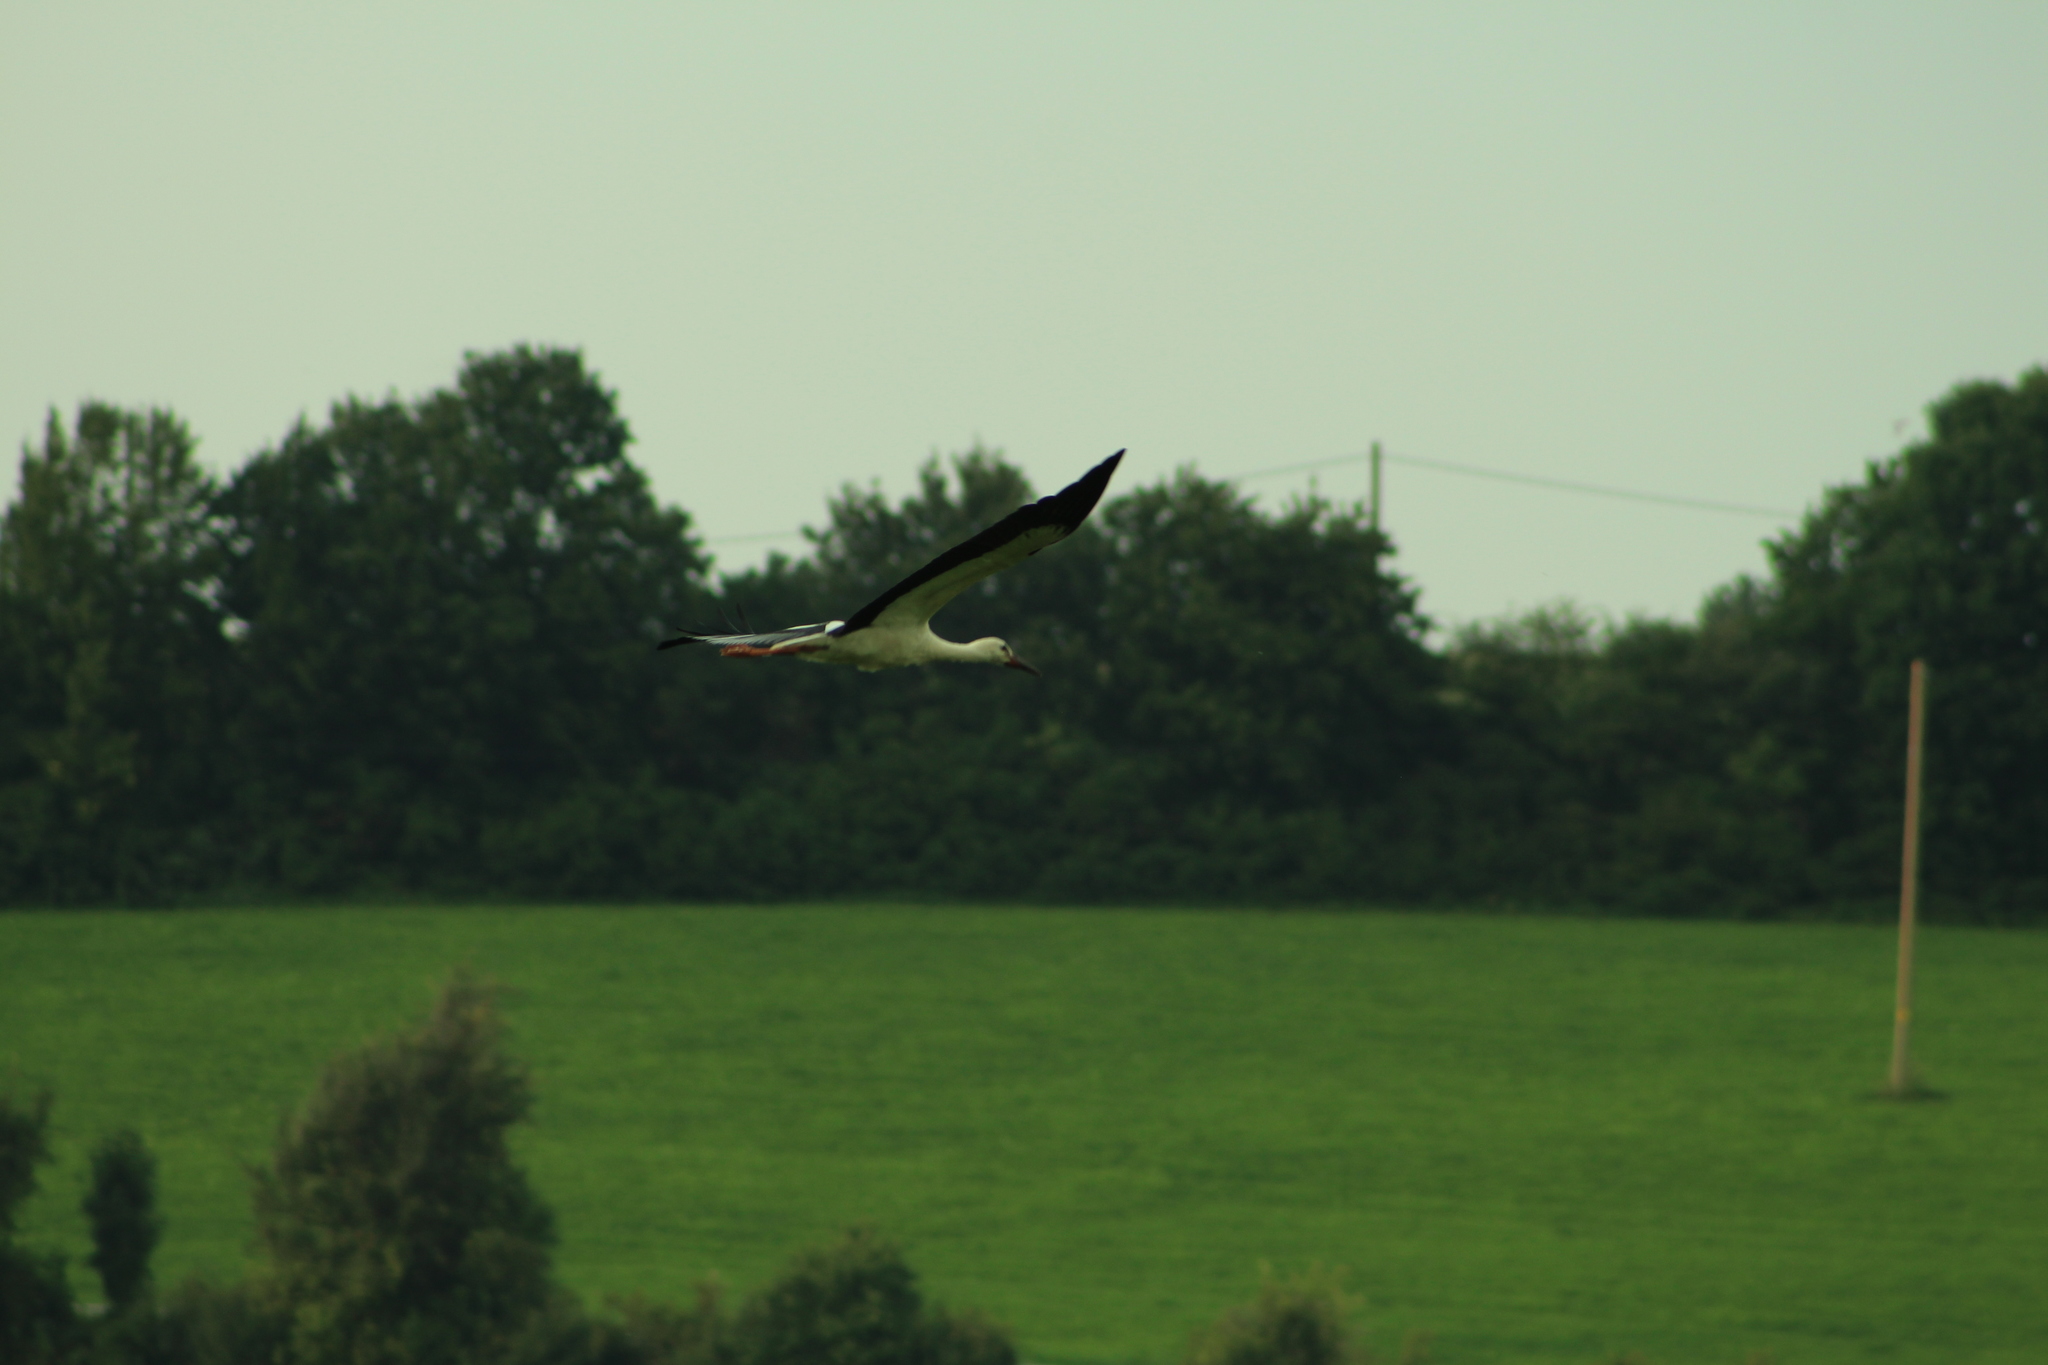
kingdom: Animalia
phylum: Chordata
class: Aves
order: Ciconiiformes
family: Ciconiidae
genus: Ciconia
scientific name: Ciconia ciconia
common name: White stork
